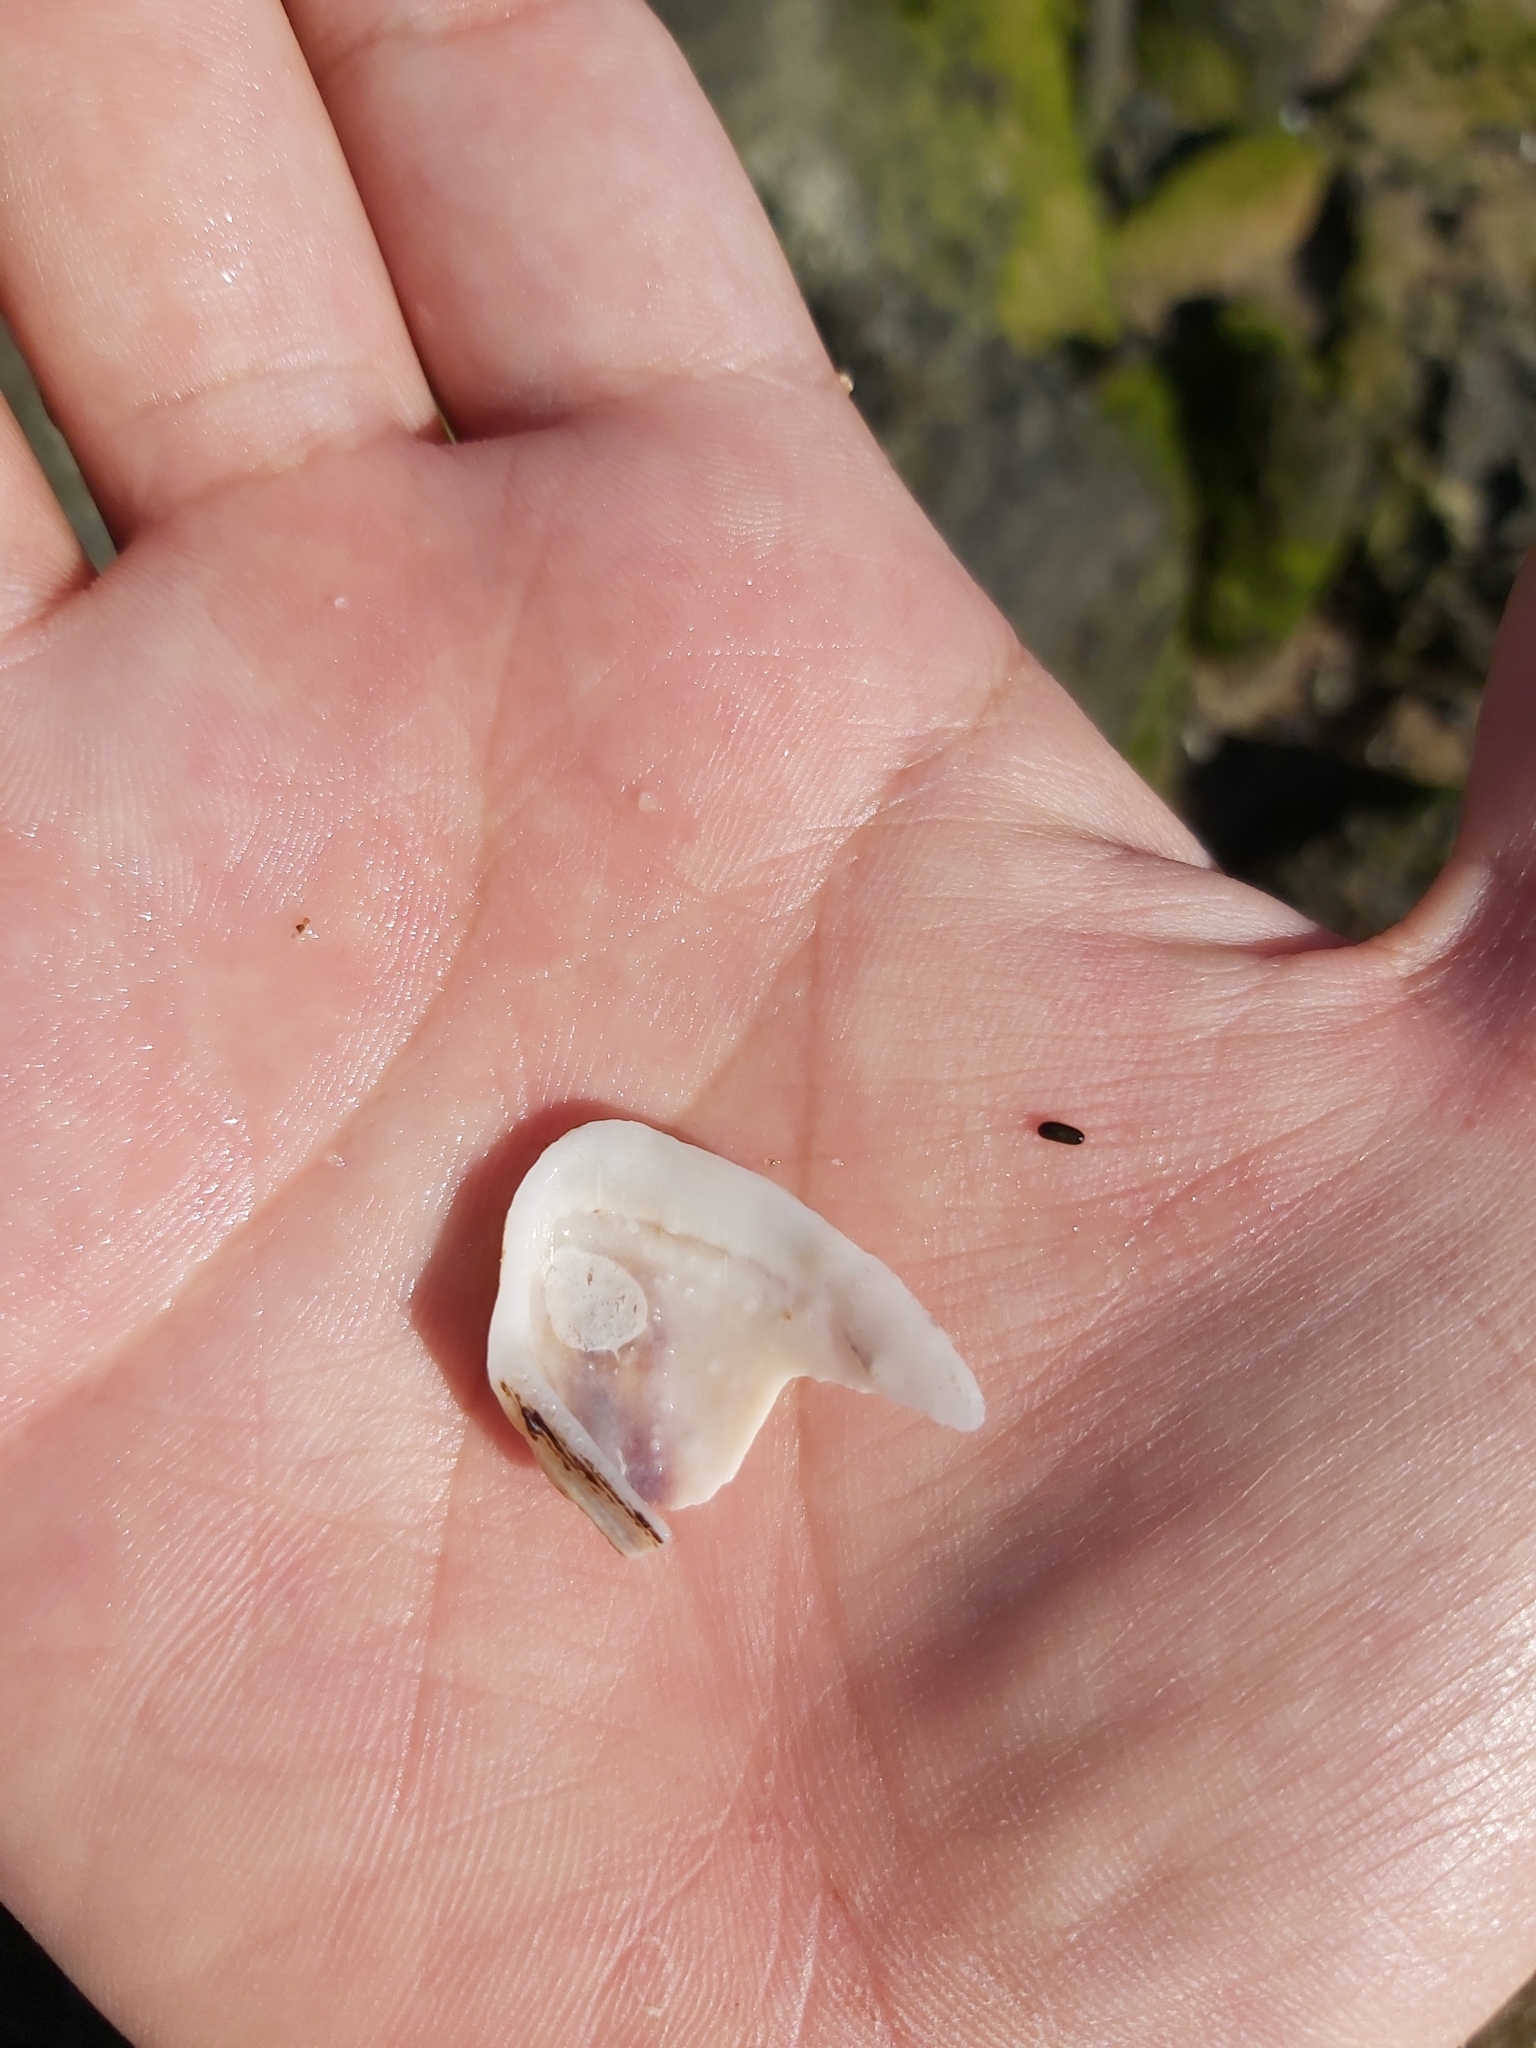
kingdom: Animalia
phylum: Mollusca
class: Bivalvia
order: Arcida
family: Arcidae
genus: Barbatia
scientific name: Barbatia pistachia
